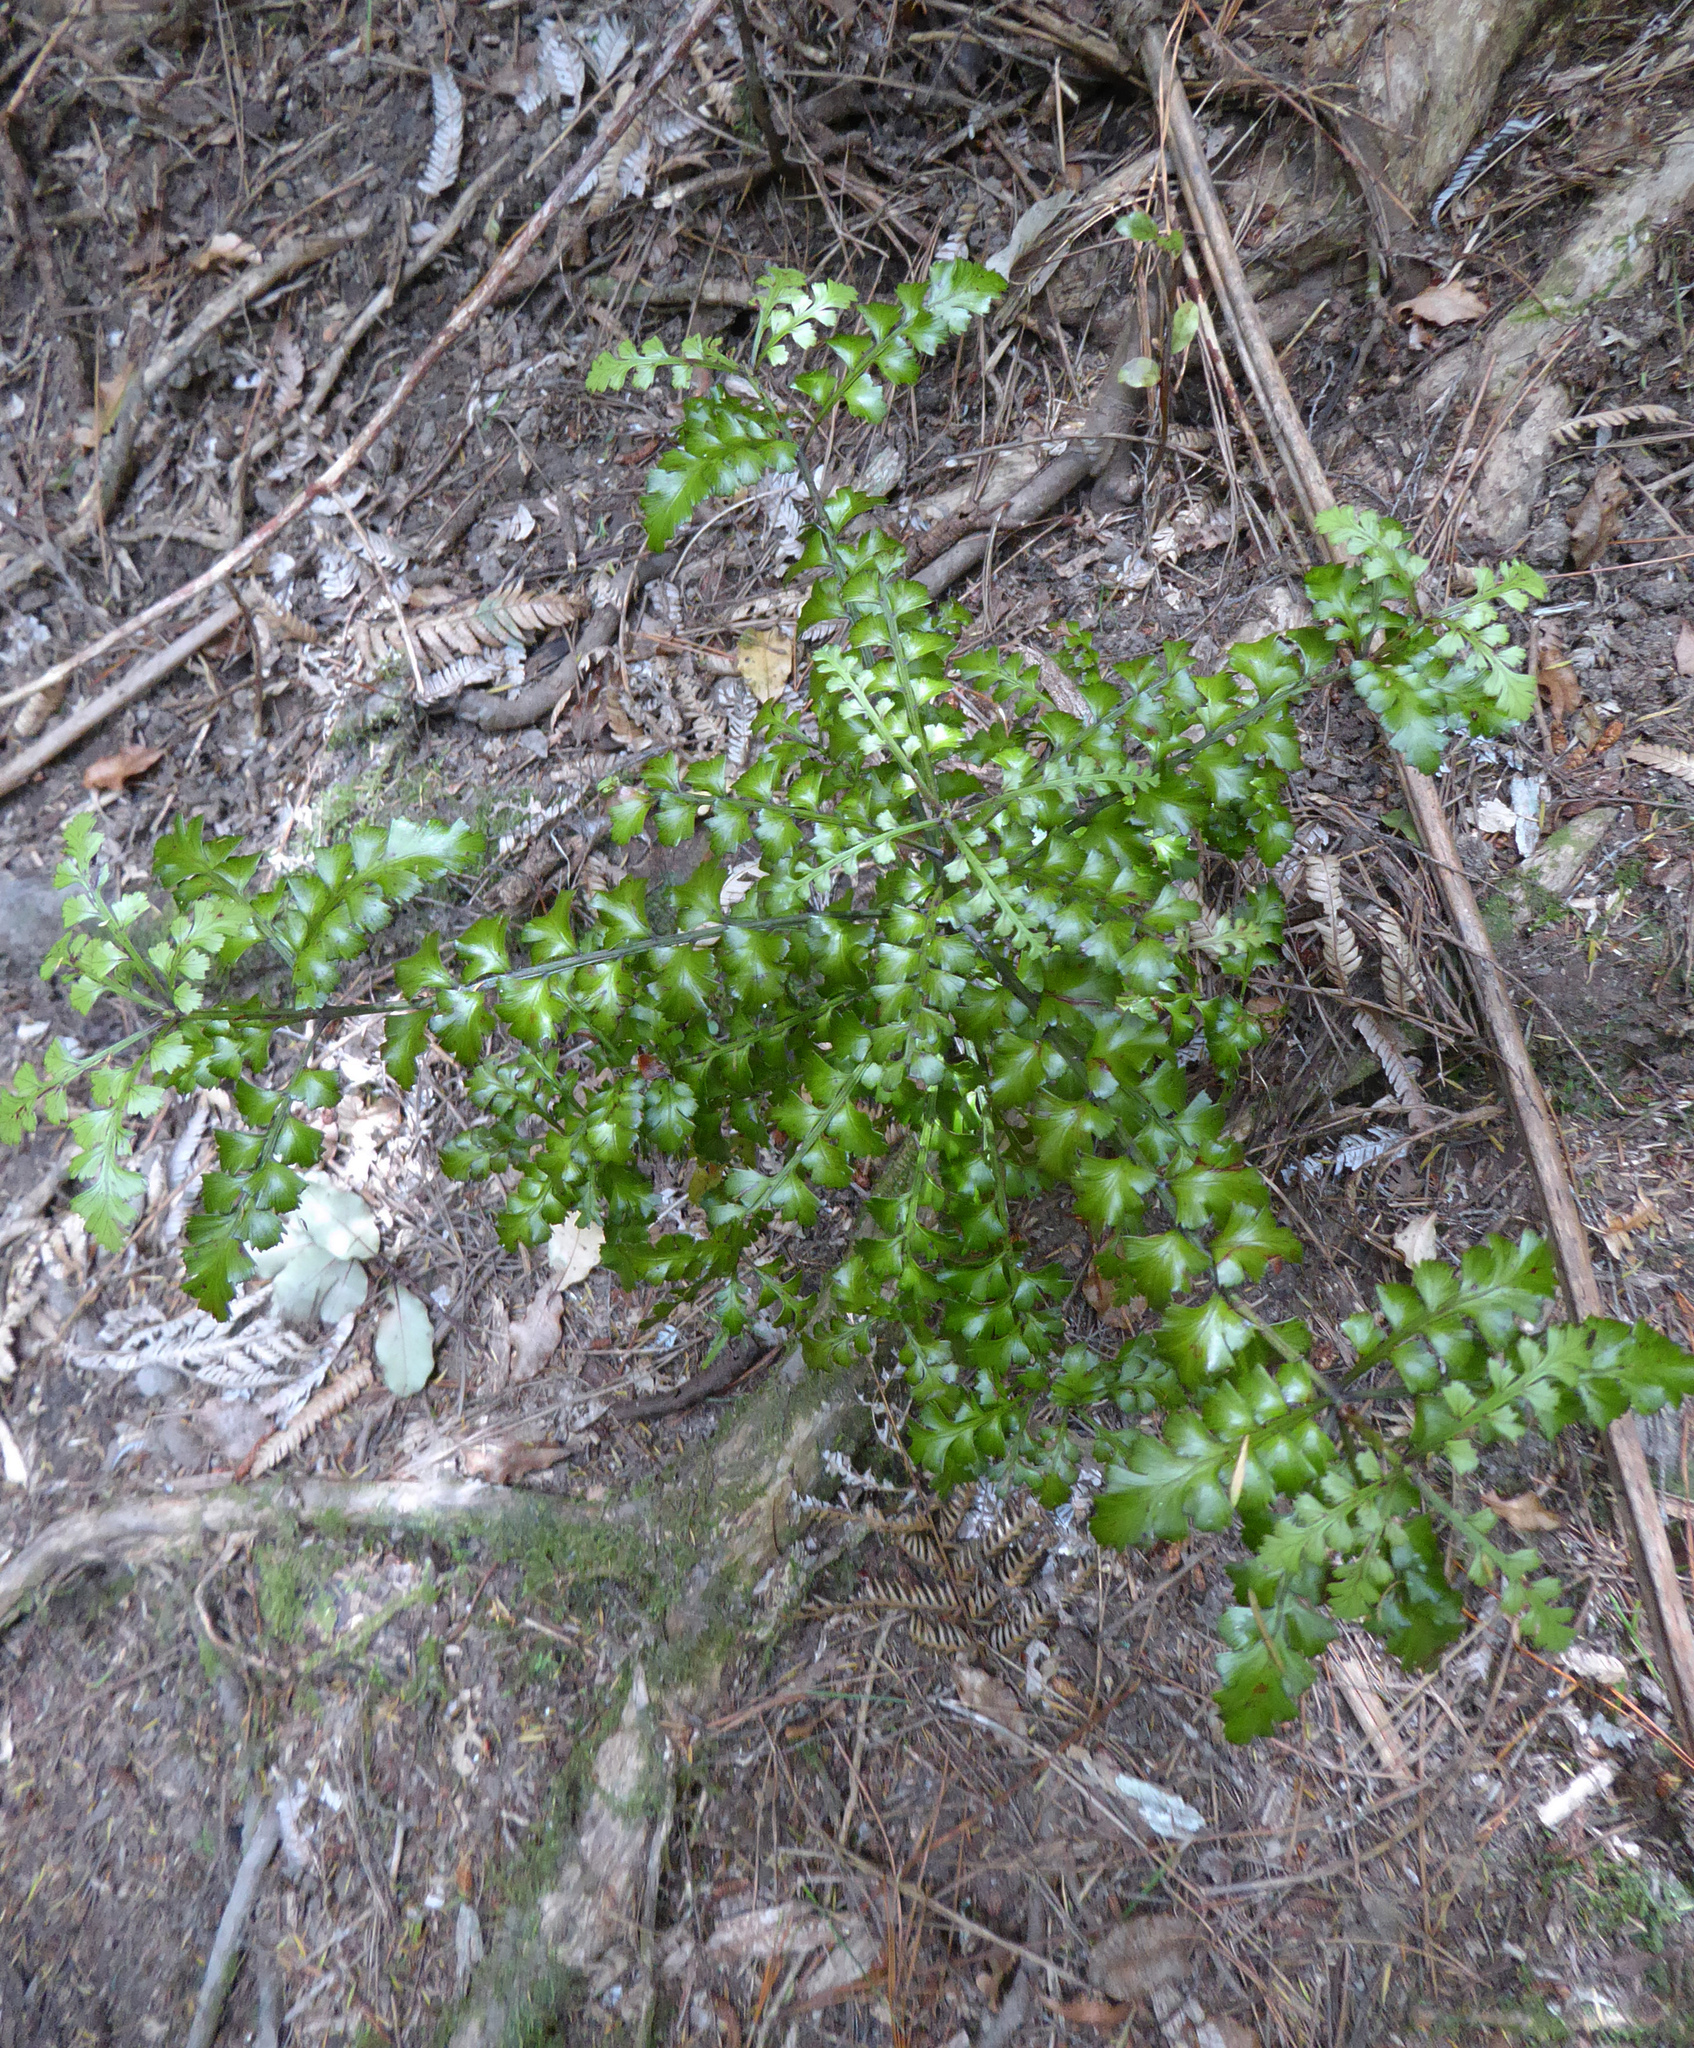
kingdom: Plantae
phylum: Tracheophyta
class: Pinopsida
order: Pinales
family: Phyllocladaceae
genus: Phyllocladus
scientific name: Phyllocladus trichomanoides
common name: Celery pine
